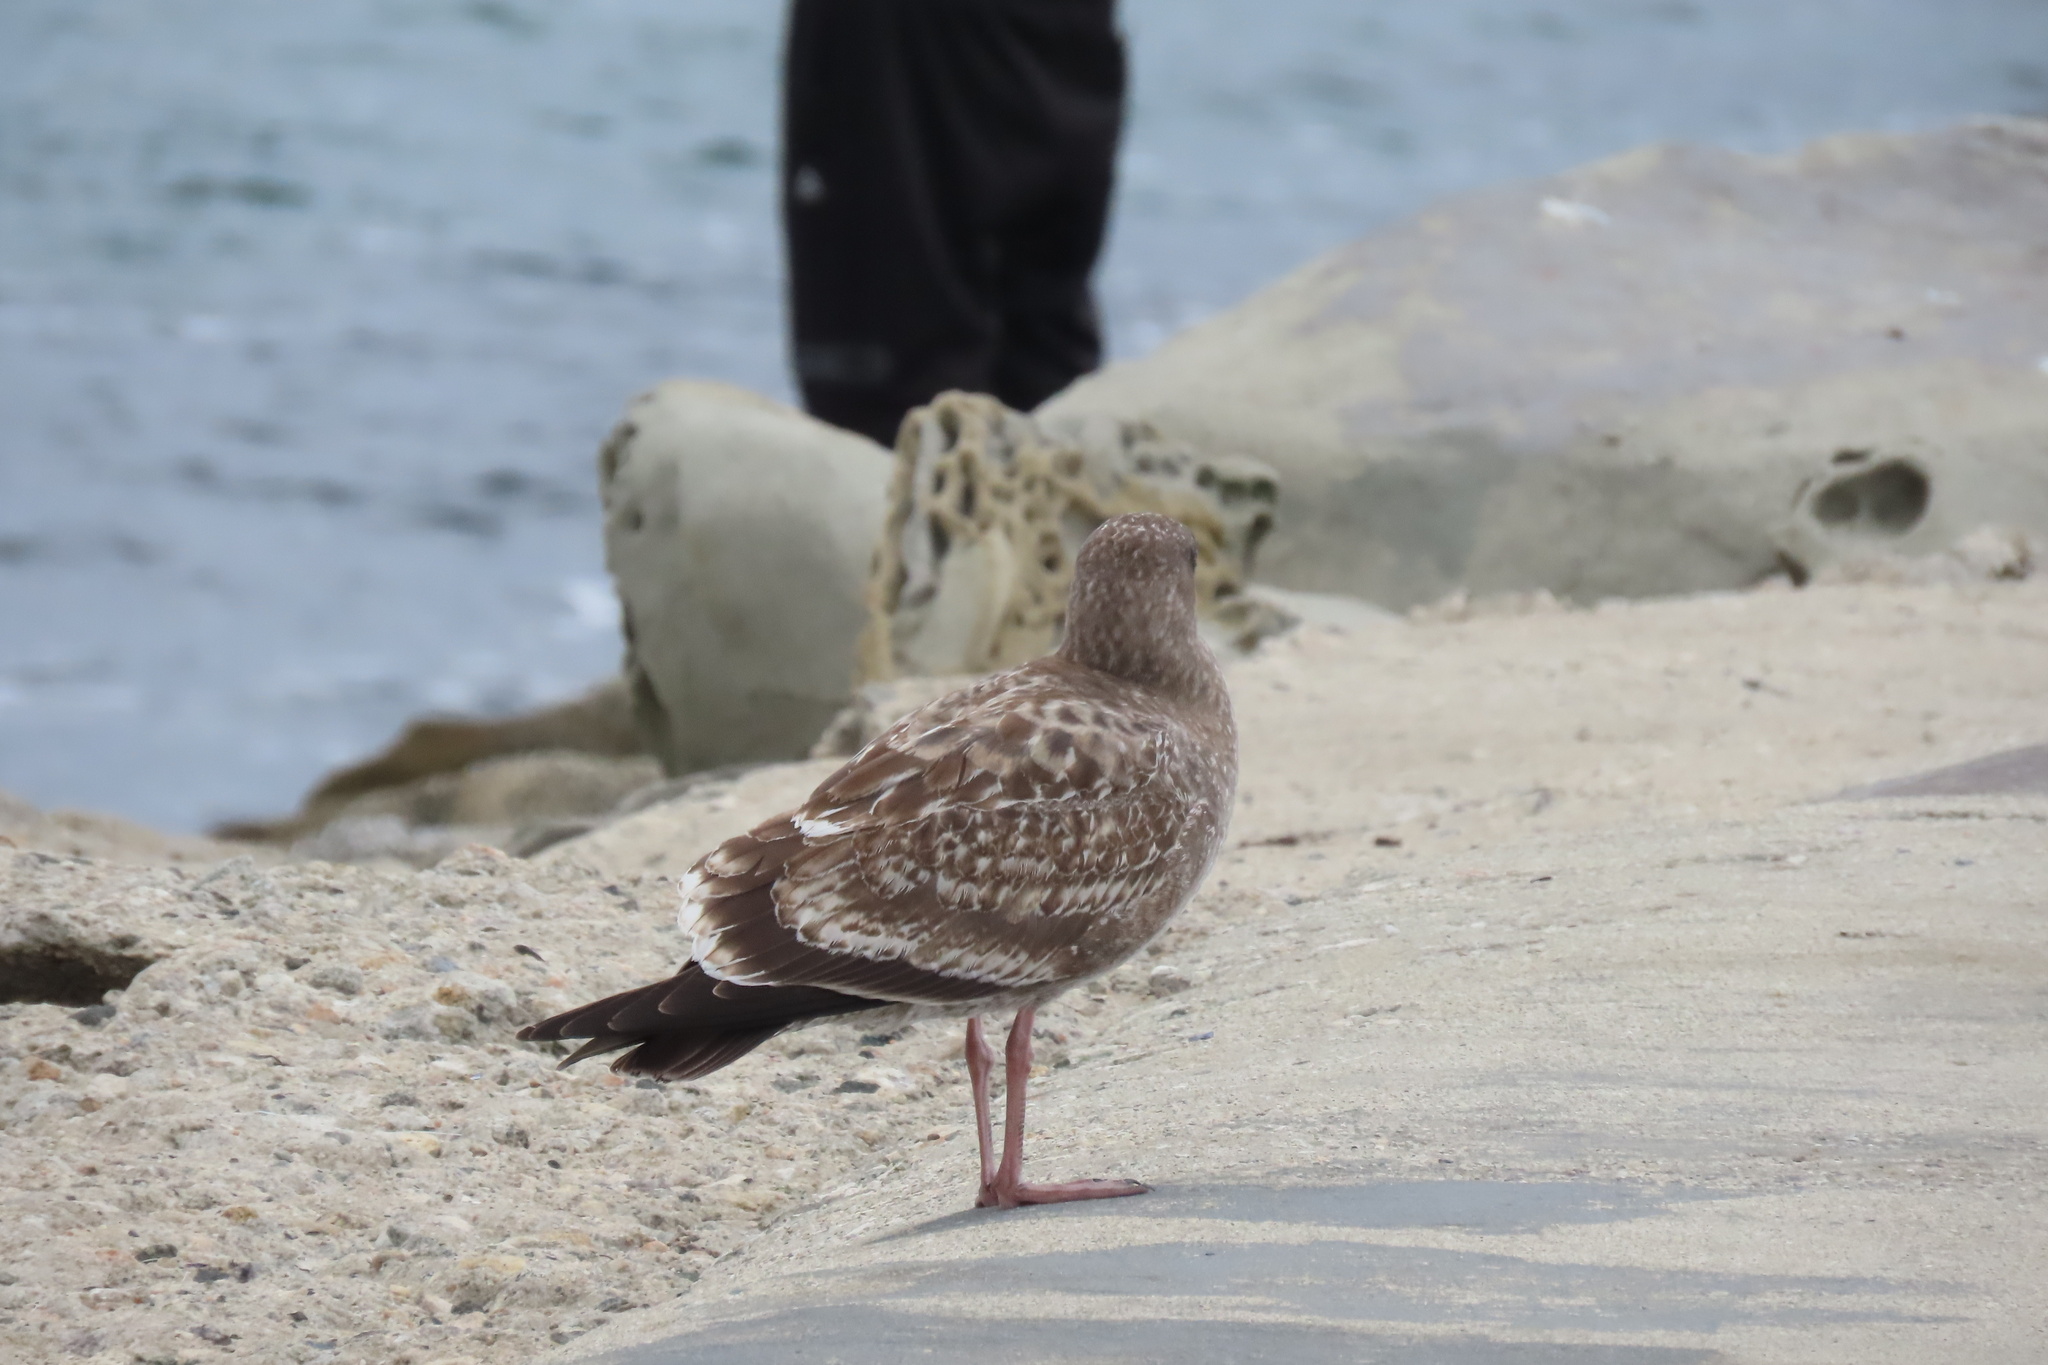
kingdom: Animalia
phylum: Chordata
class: Aves
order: Charadriiformes
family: Laridae
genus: Larus
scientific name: Larus occidentalis
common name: Western gull
